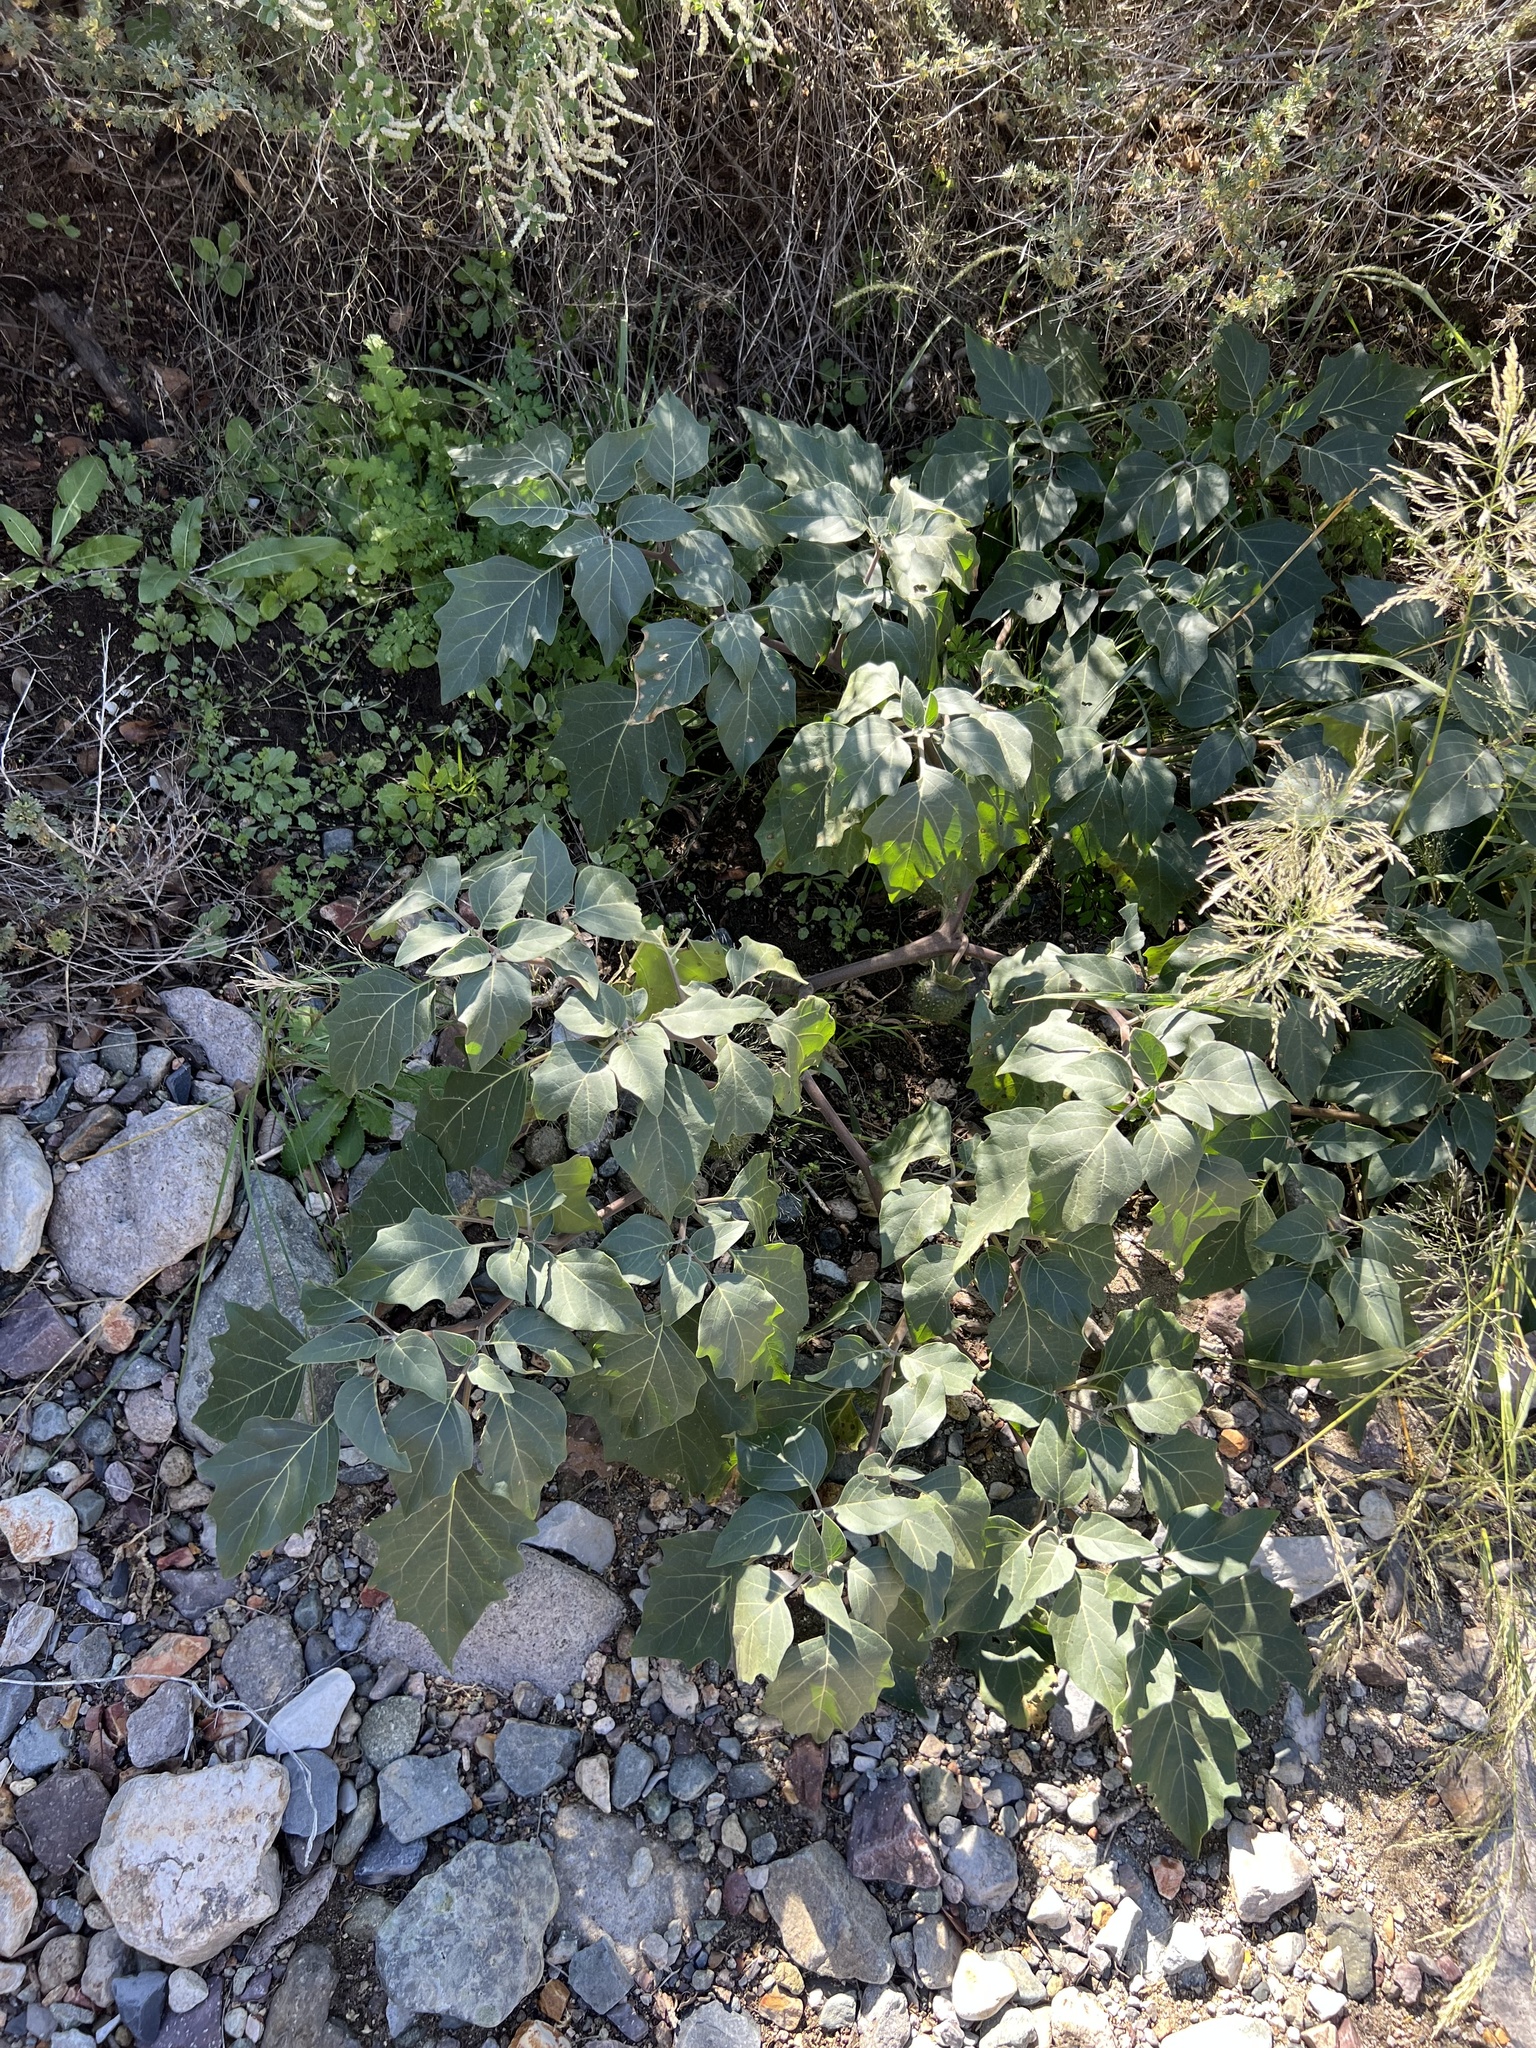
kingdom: Plantae
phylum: Tracheophyta
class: Magnoliopsida
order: Solanales
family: Solanaceae
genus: Datura
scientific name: Datura wrightii
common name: Sacred thorn-apple
